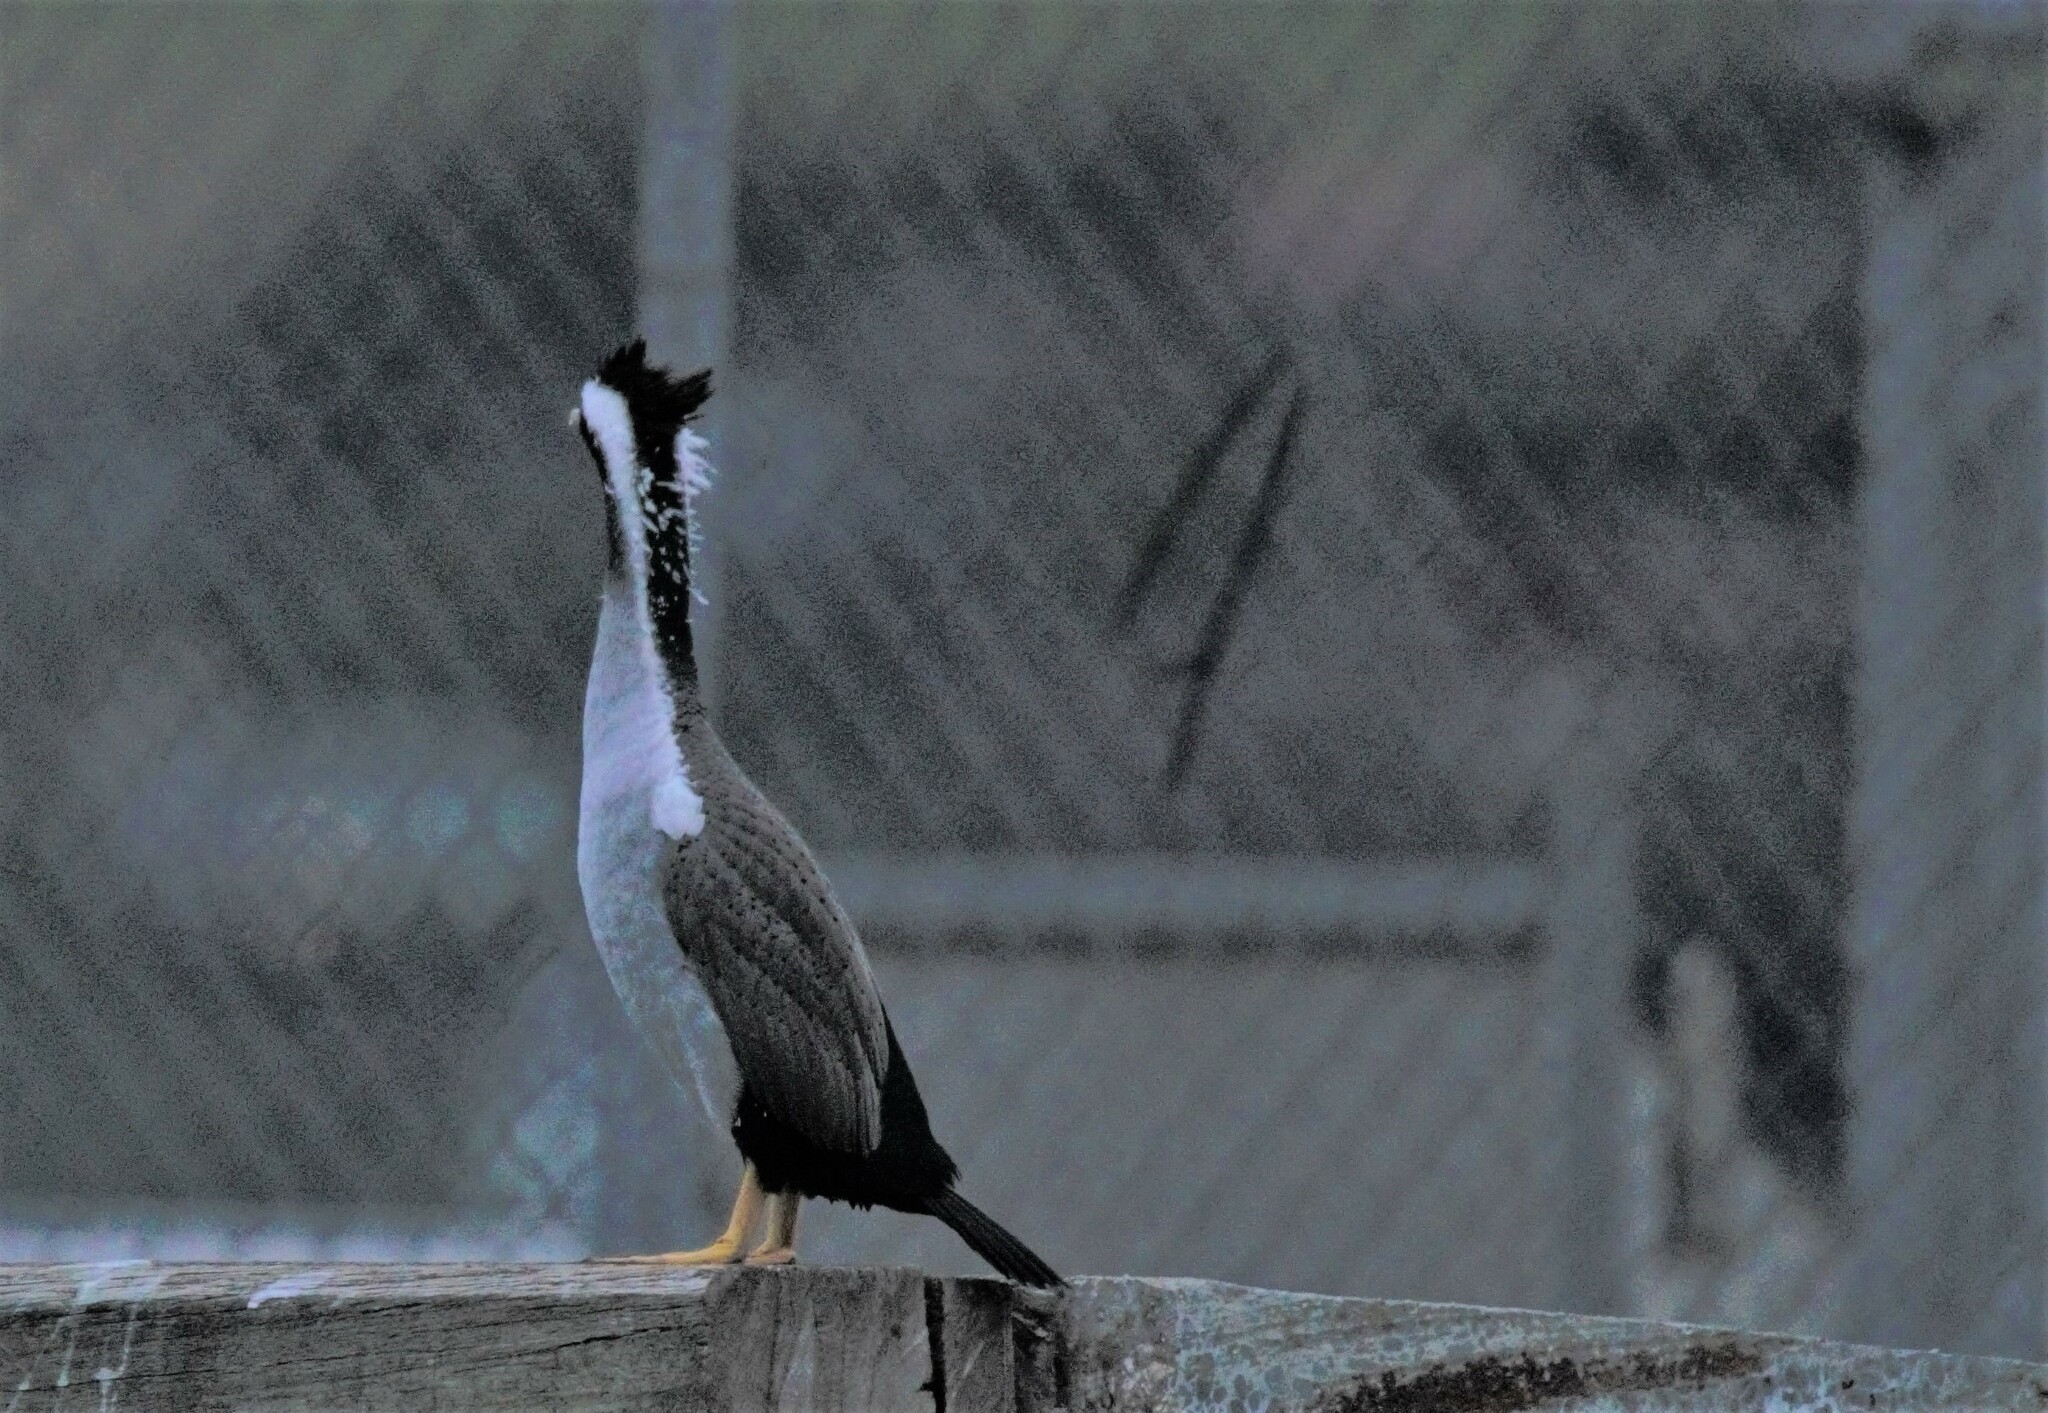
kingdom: Animalia
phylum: Chordata
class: Aves
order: Suliformes
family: Phalacrocoracidae
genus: Phalacrocorax
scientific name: Phalacrocorax punctatus
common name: Spotted shag
